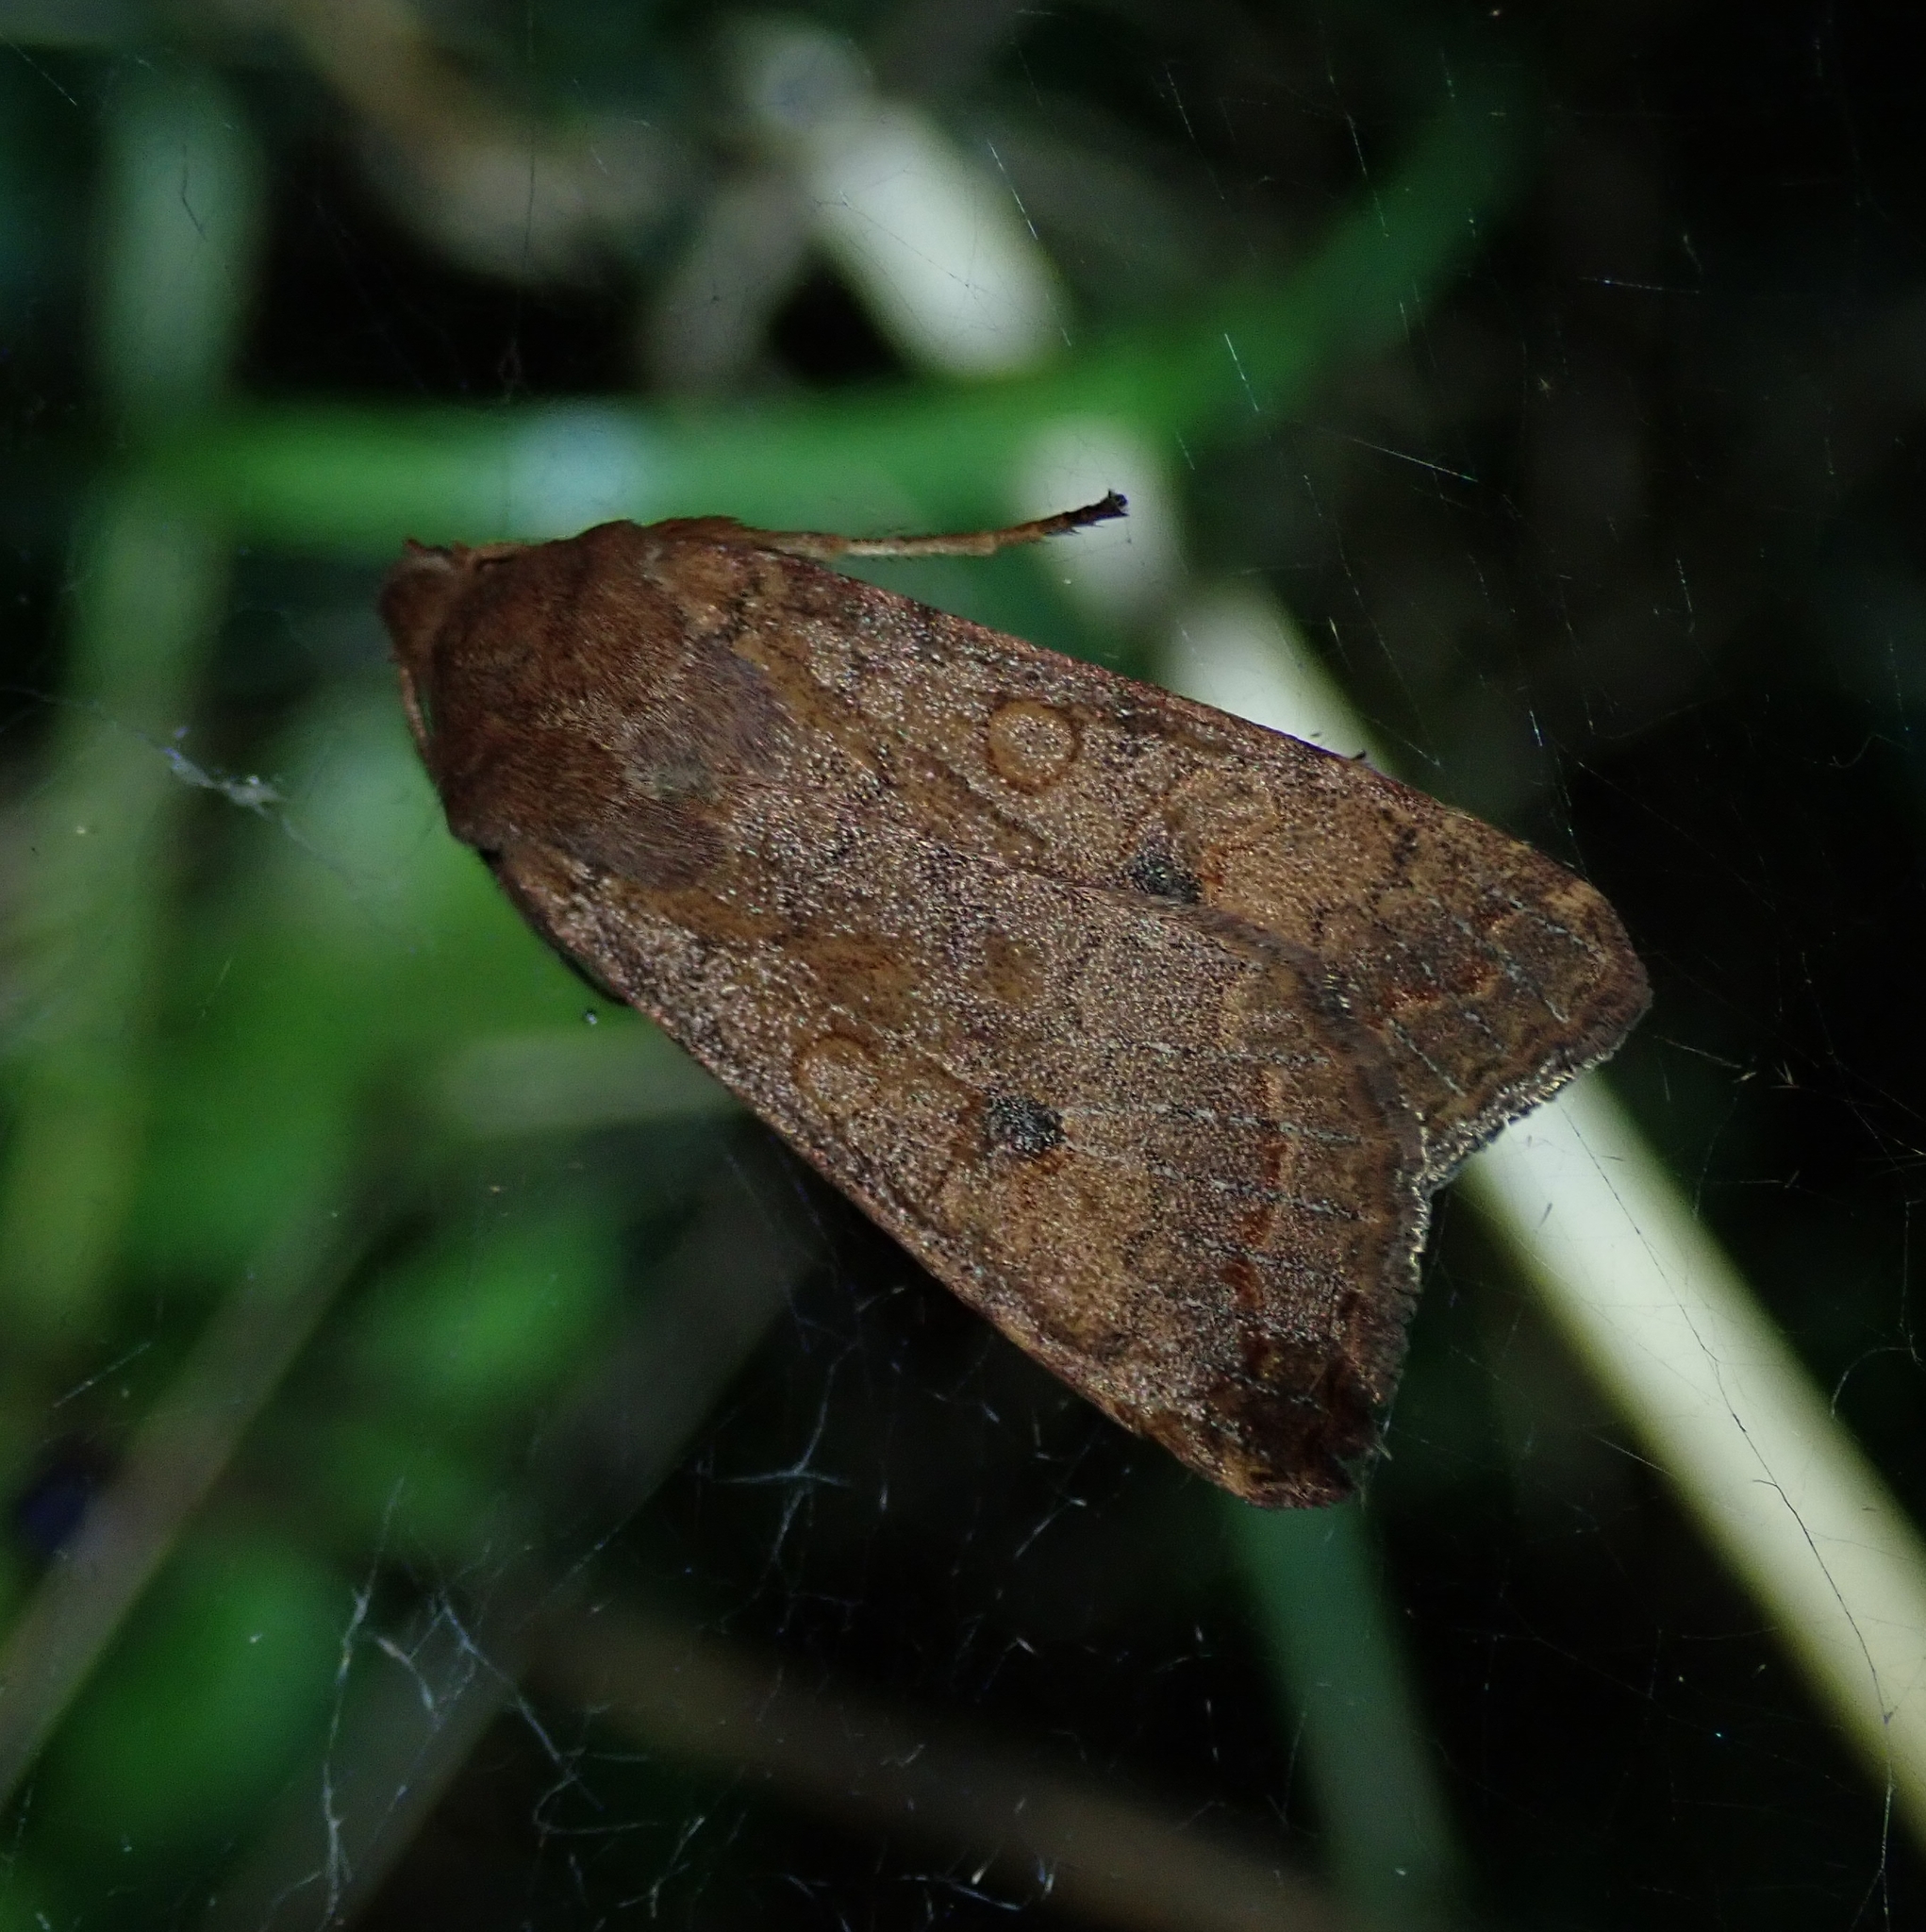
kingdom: Animalia
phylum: Arthropoda
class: Insecta
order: Lepidoptera
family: Noctuidae
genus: Sunira
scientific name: Sunira circellaris
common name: Brick
